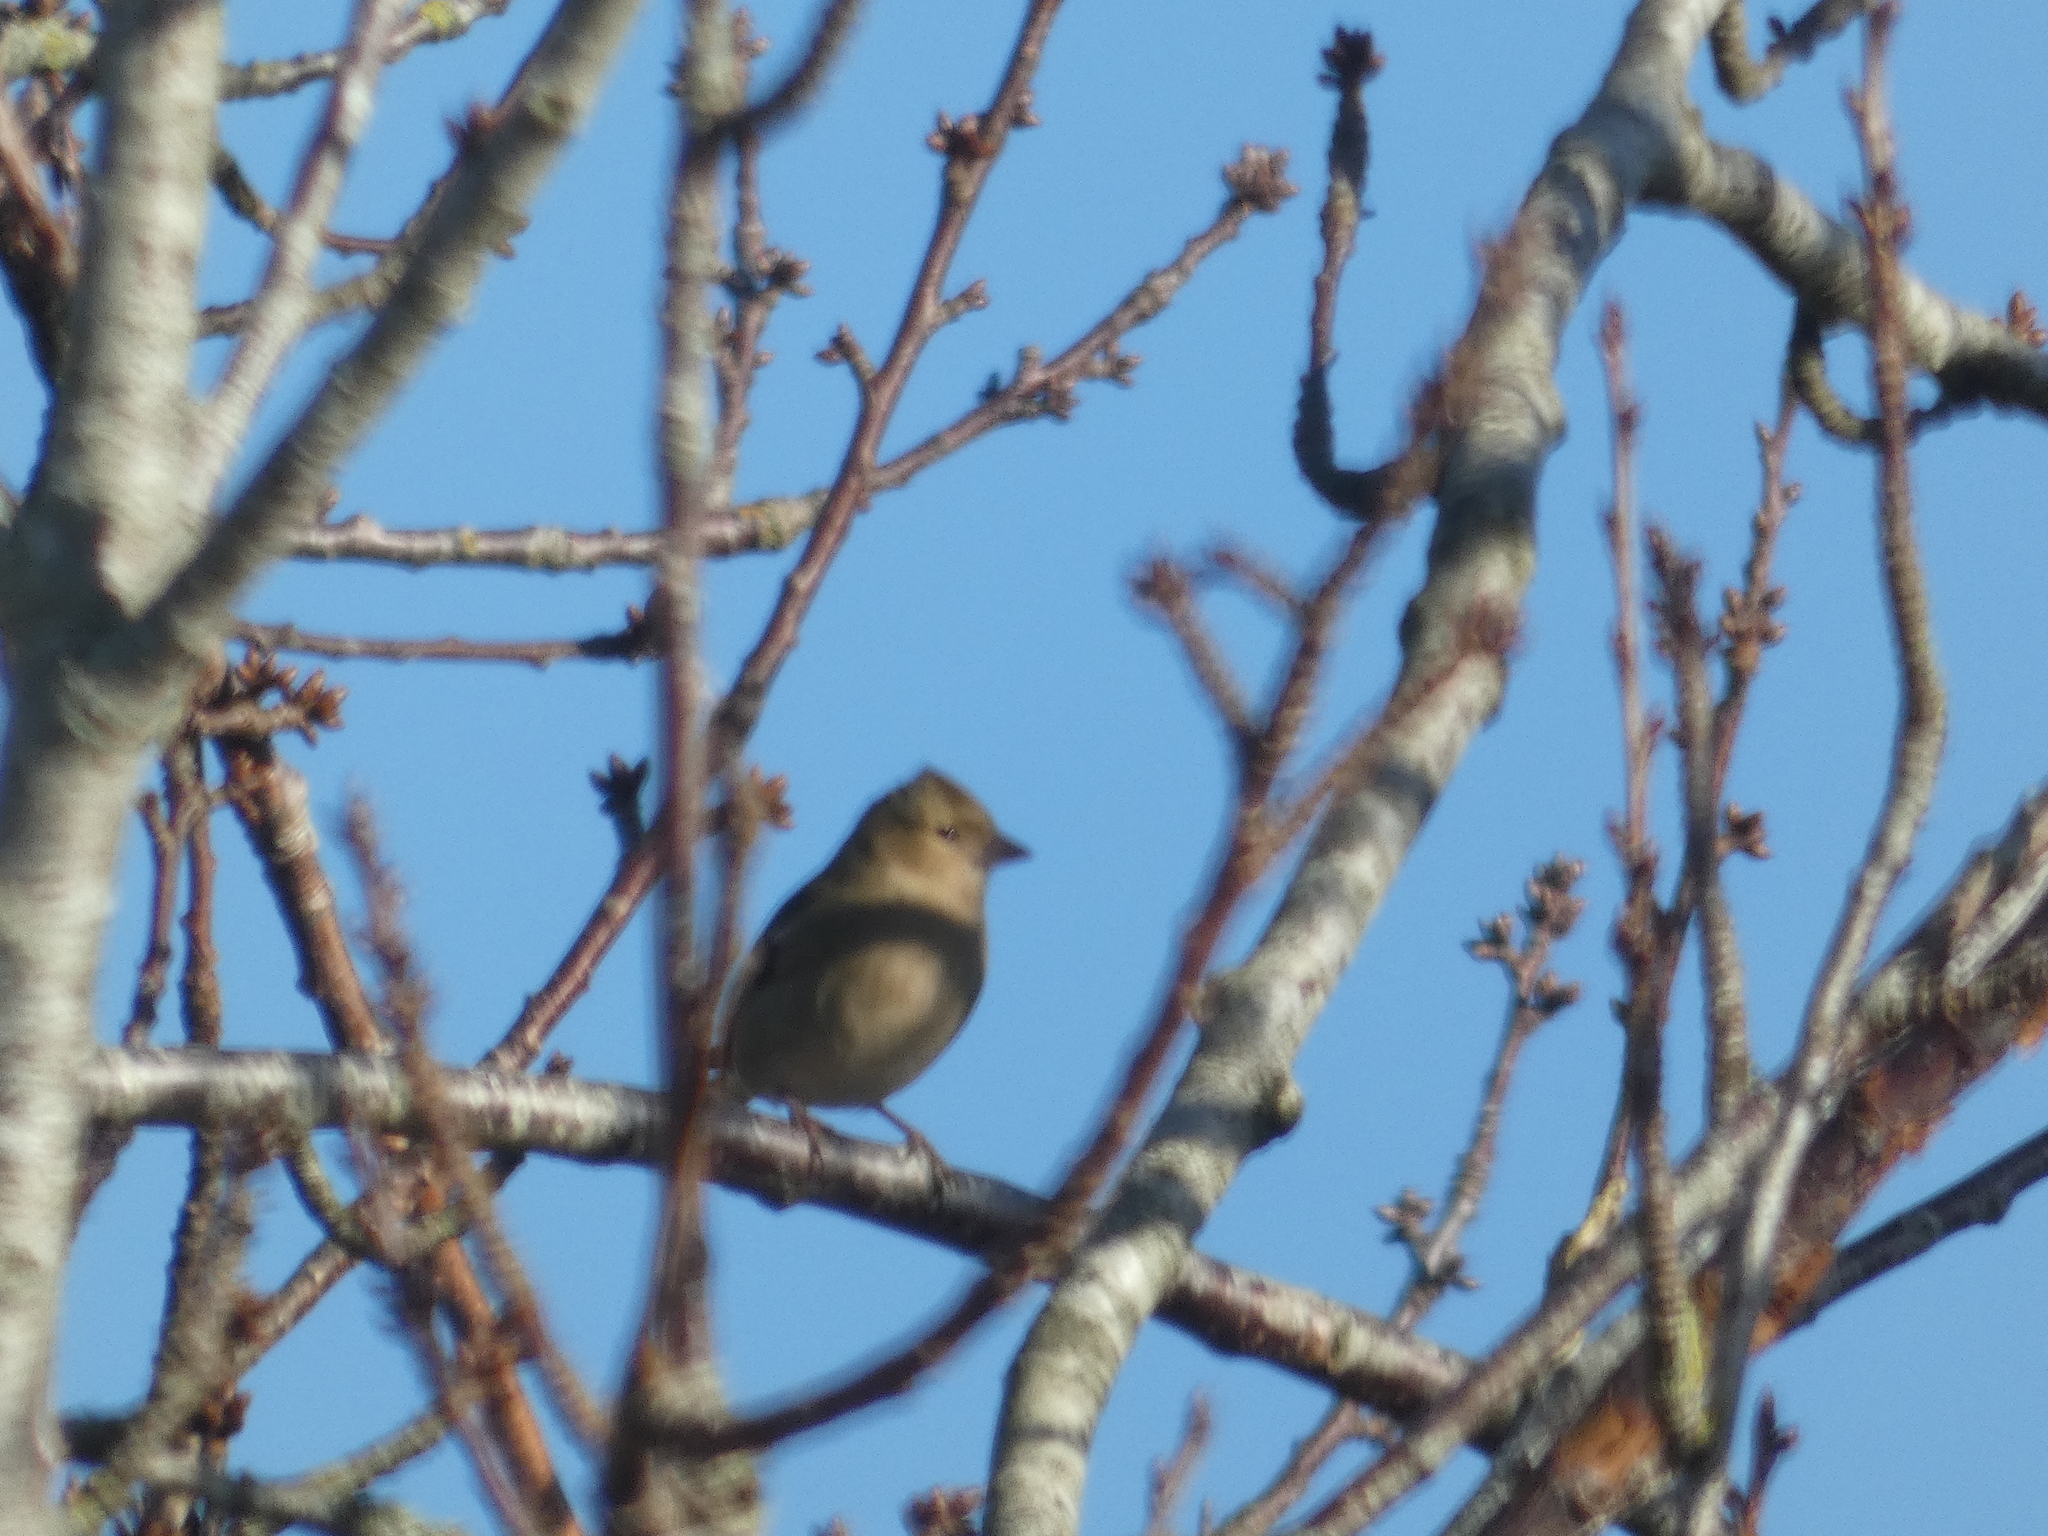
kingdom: Animalia
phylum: Chordata
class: Aves
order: Passeriformes
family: Fringillidae
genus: Fringilla
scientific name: Fringilla coelebs
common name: Common chaffinch
